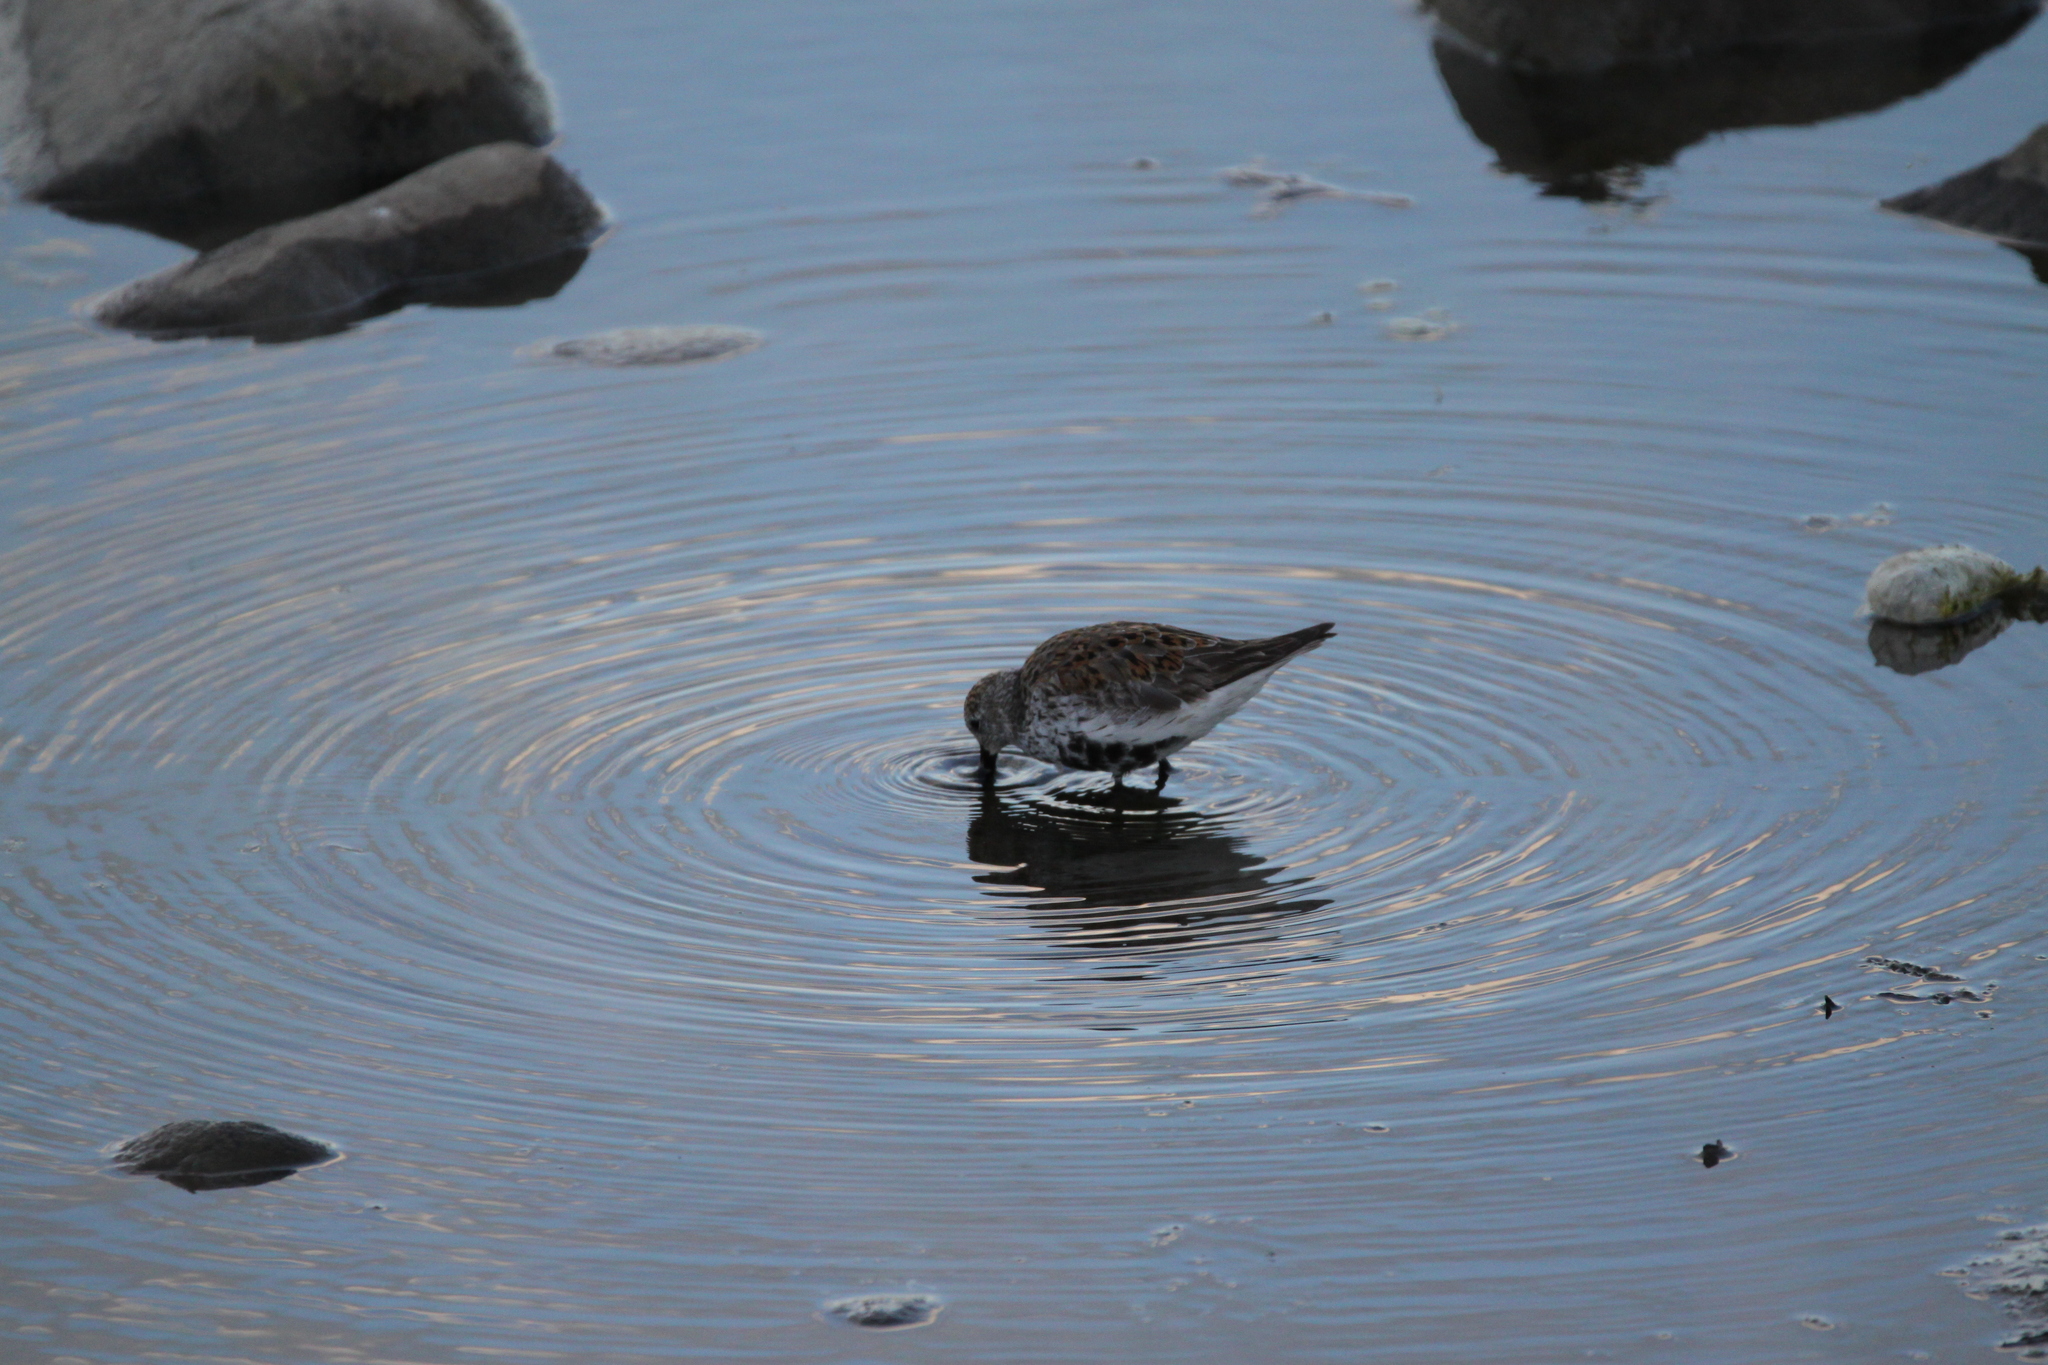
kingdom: Animalia
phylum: Chordata
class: Aves
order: Charadriiformes
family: Scolopacidae
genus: Calidris
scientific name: Calidris alpina
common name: Dunlin
